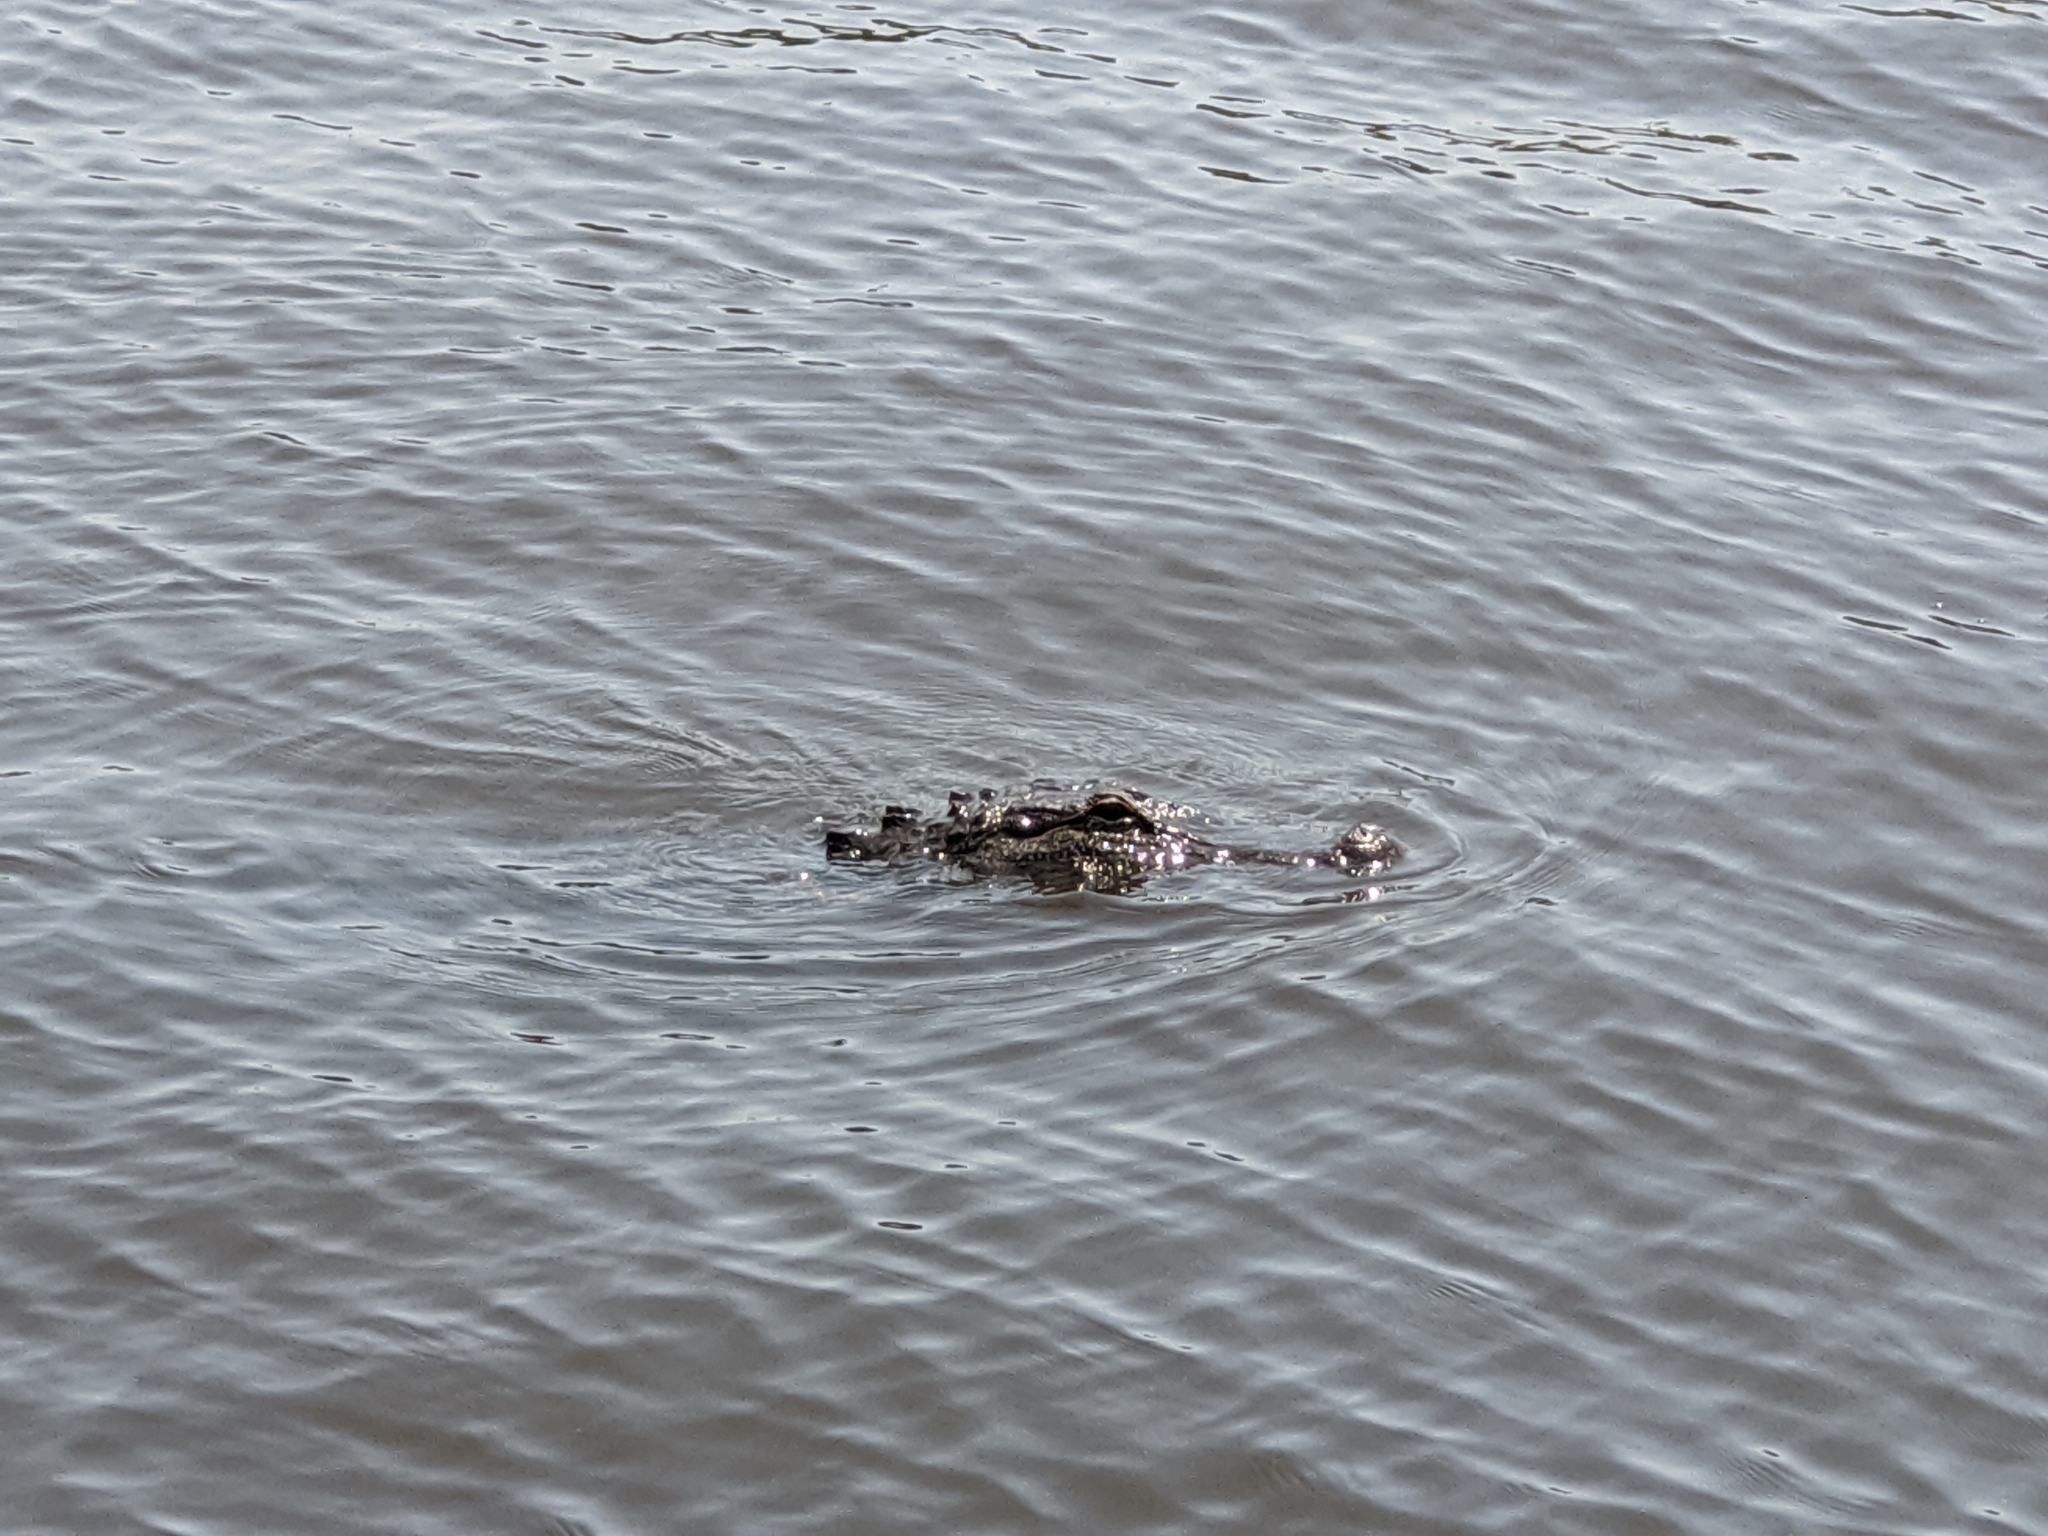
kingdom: Animalia
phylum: Chordata
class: Crocodylia
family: Alligatoridae
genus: Alligator
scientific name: Alligator mississippiensis
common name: American alligator
